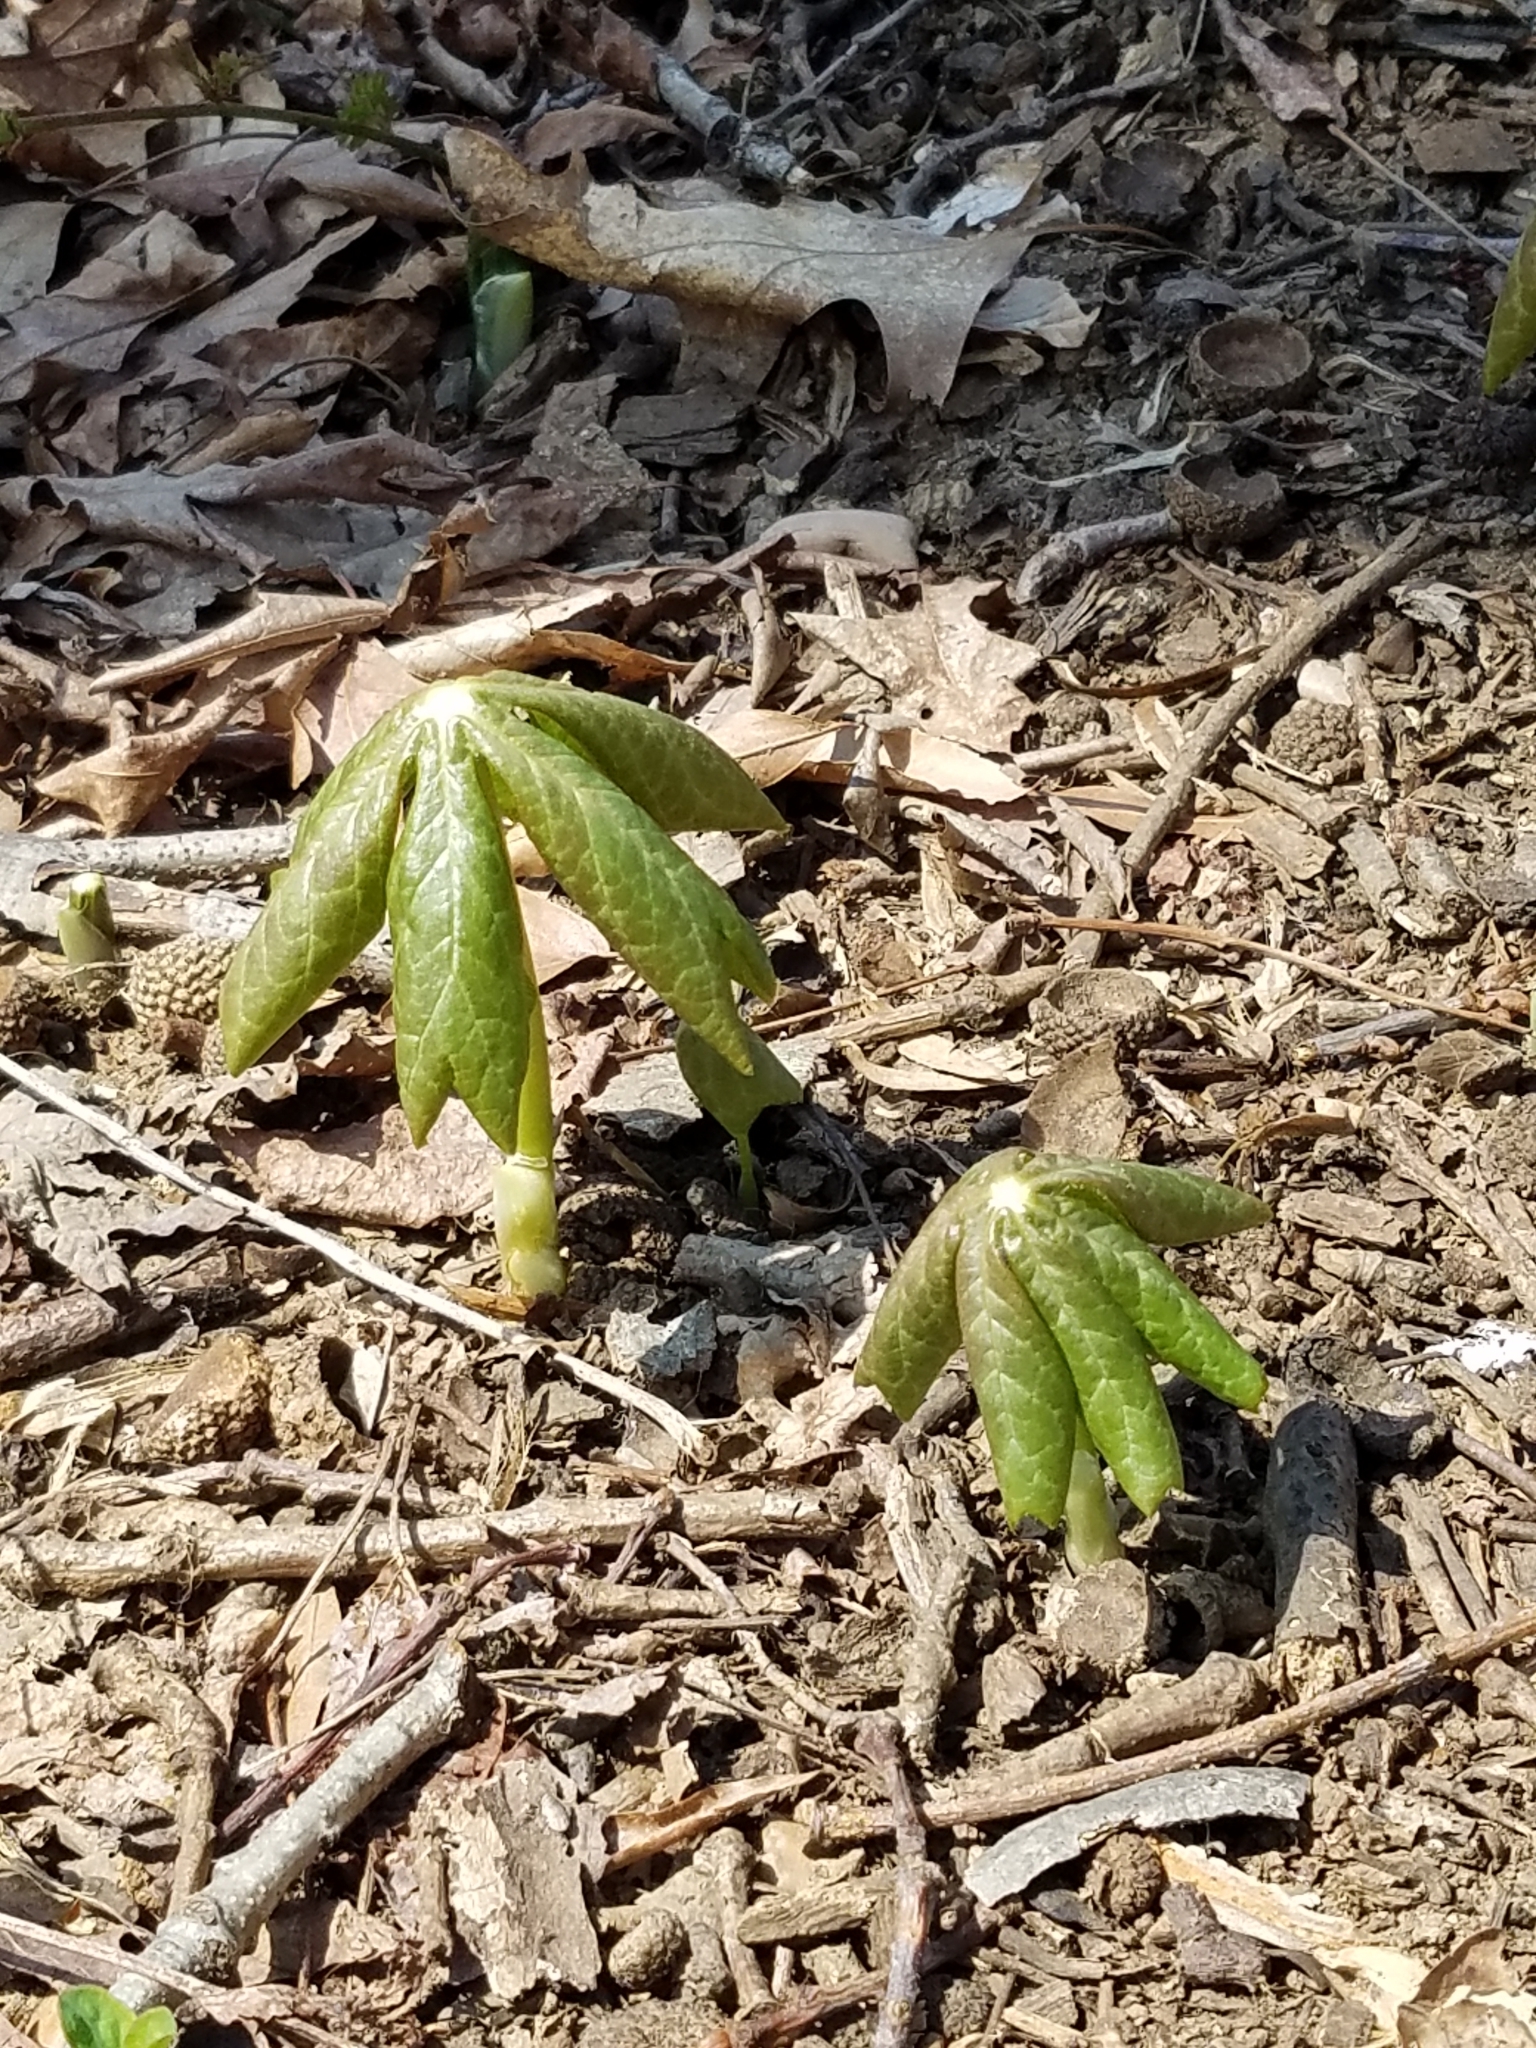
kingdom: Plantae
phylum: Tracheophyta
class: Magnoliopsida
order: Ranunculales
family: Berberidaceae
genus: Podophyllum
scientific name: Podophyllum peltatum
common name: Wild mandrake
